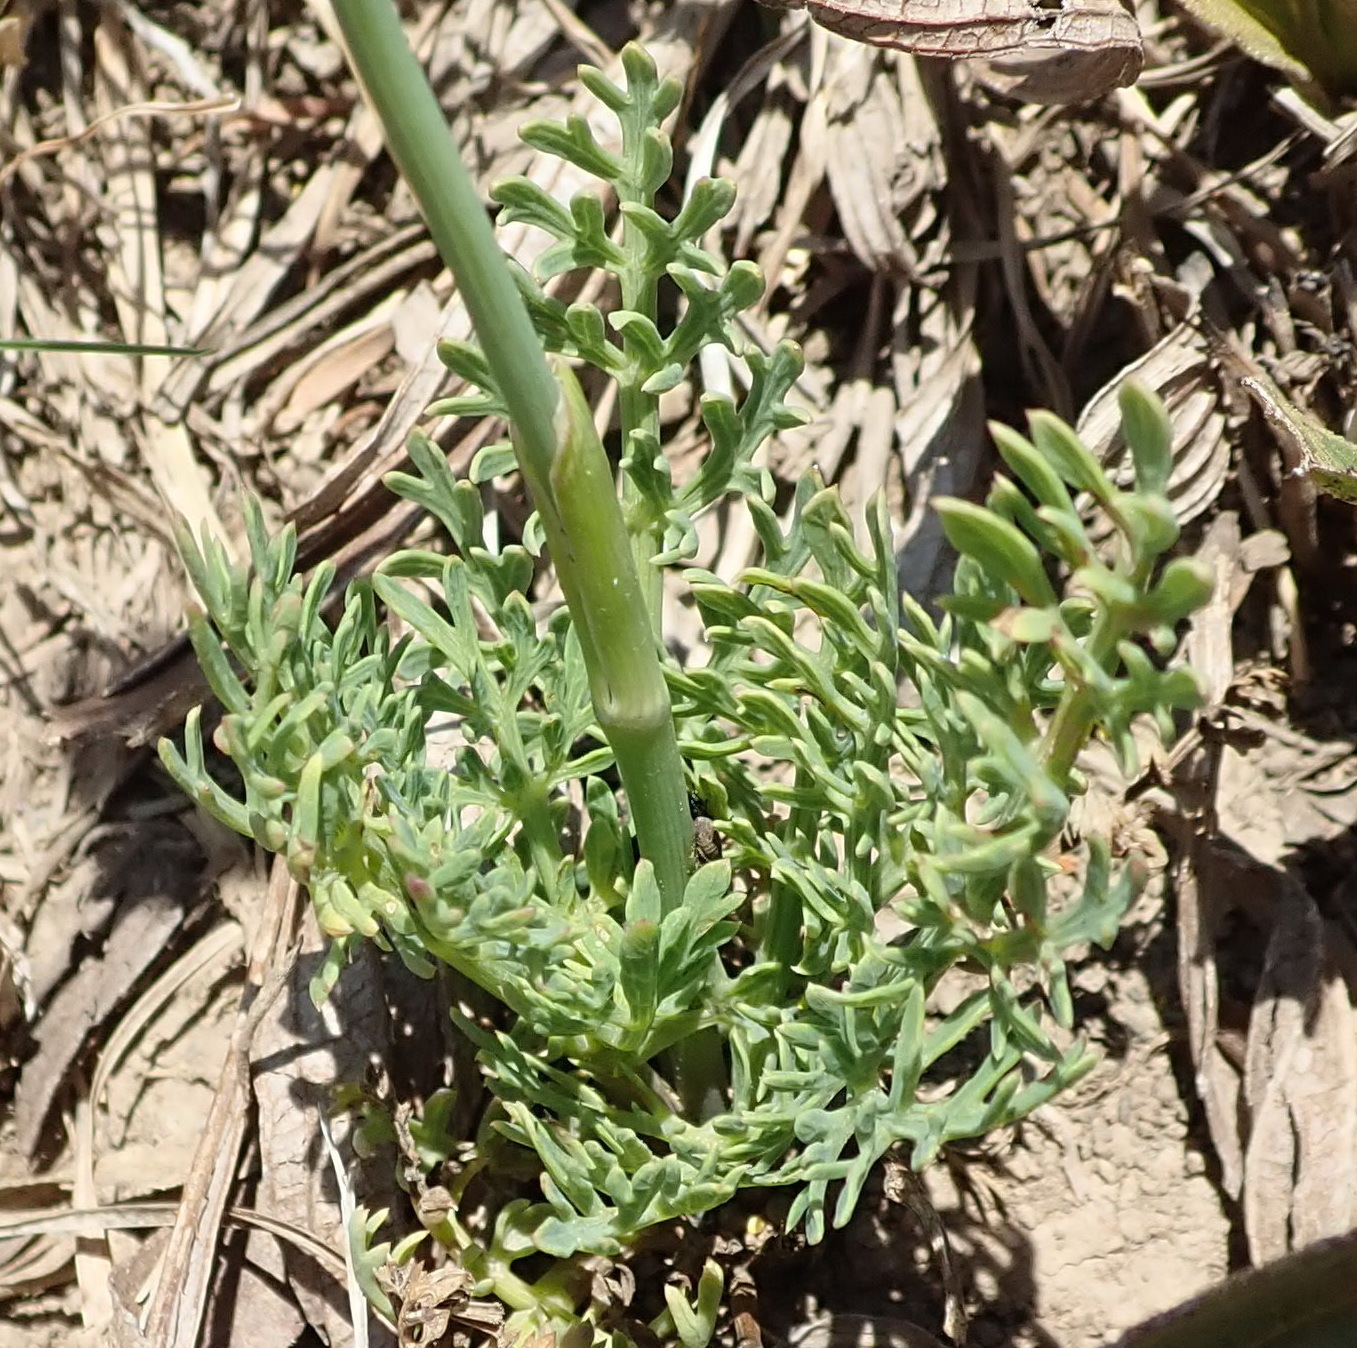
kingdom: Plantae
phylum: Tracheophyta
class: Magnoliopsida
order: Apiales
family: Apiaceae
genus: Afrosciadium
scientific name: Afrosciadium magalismontanum
